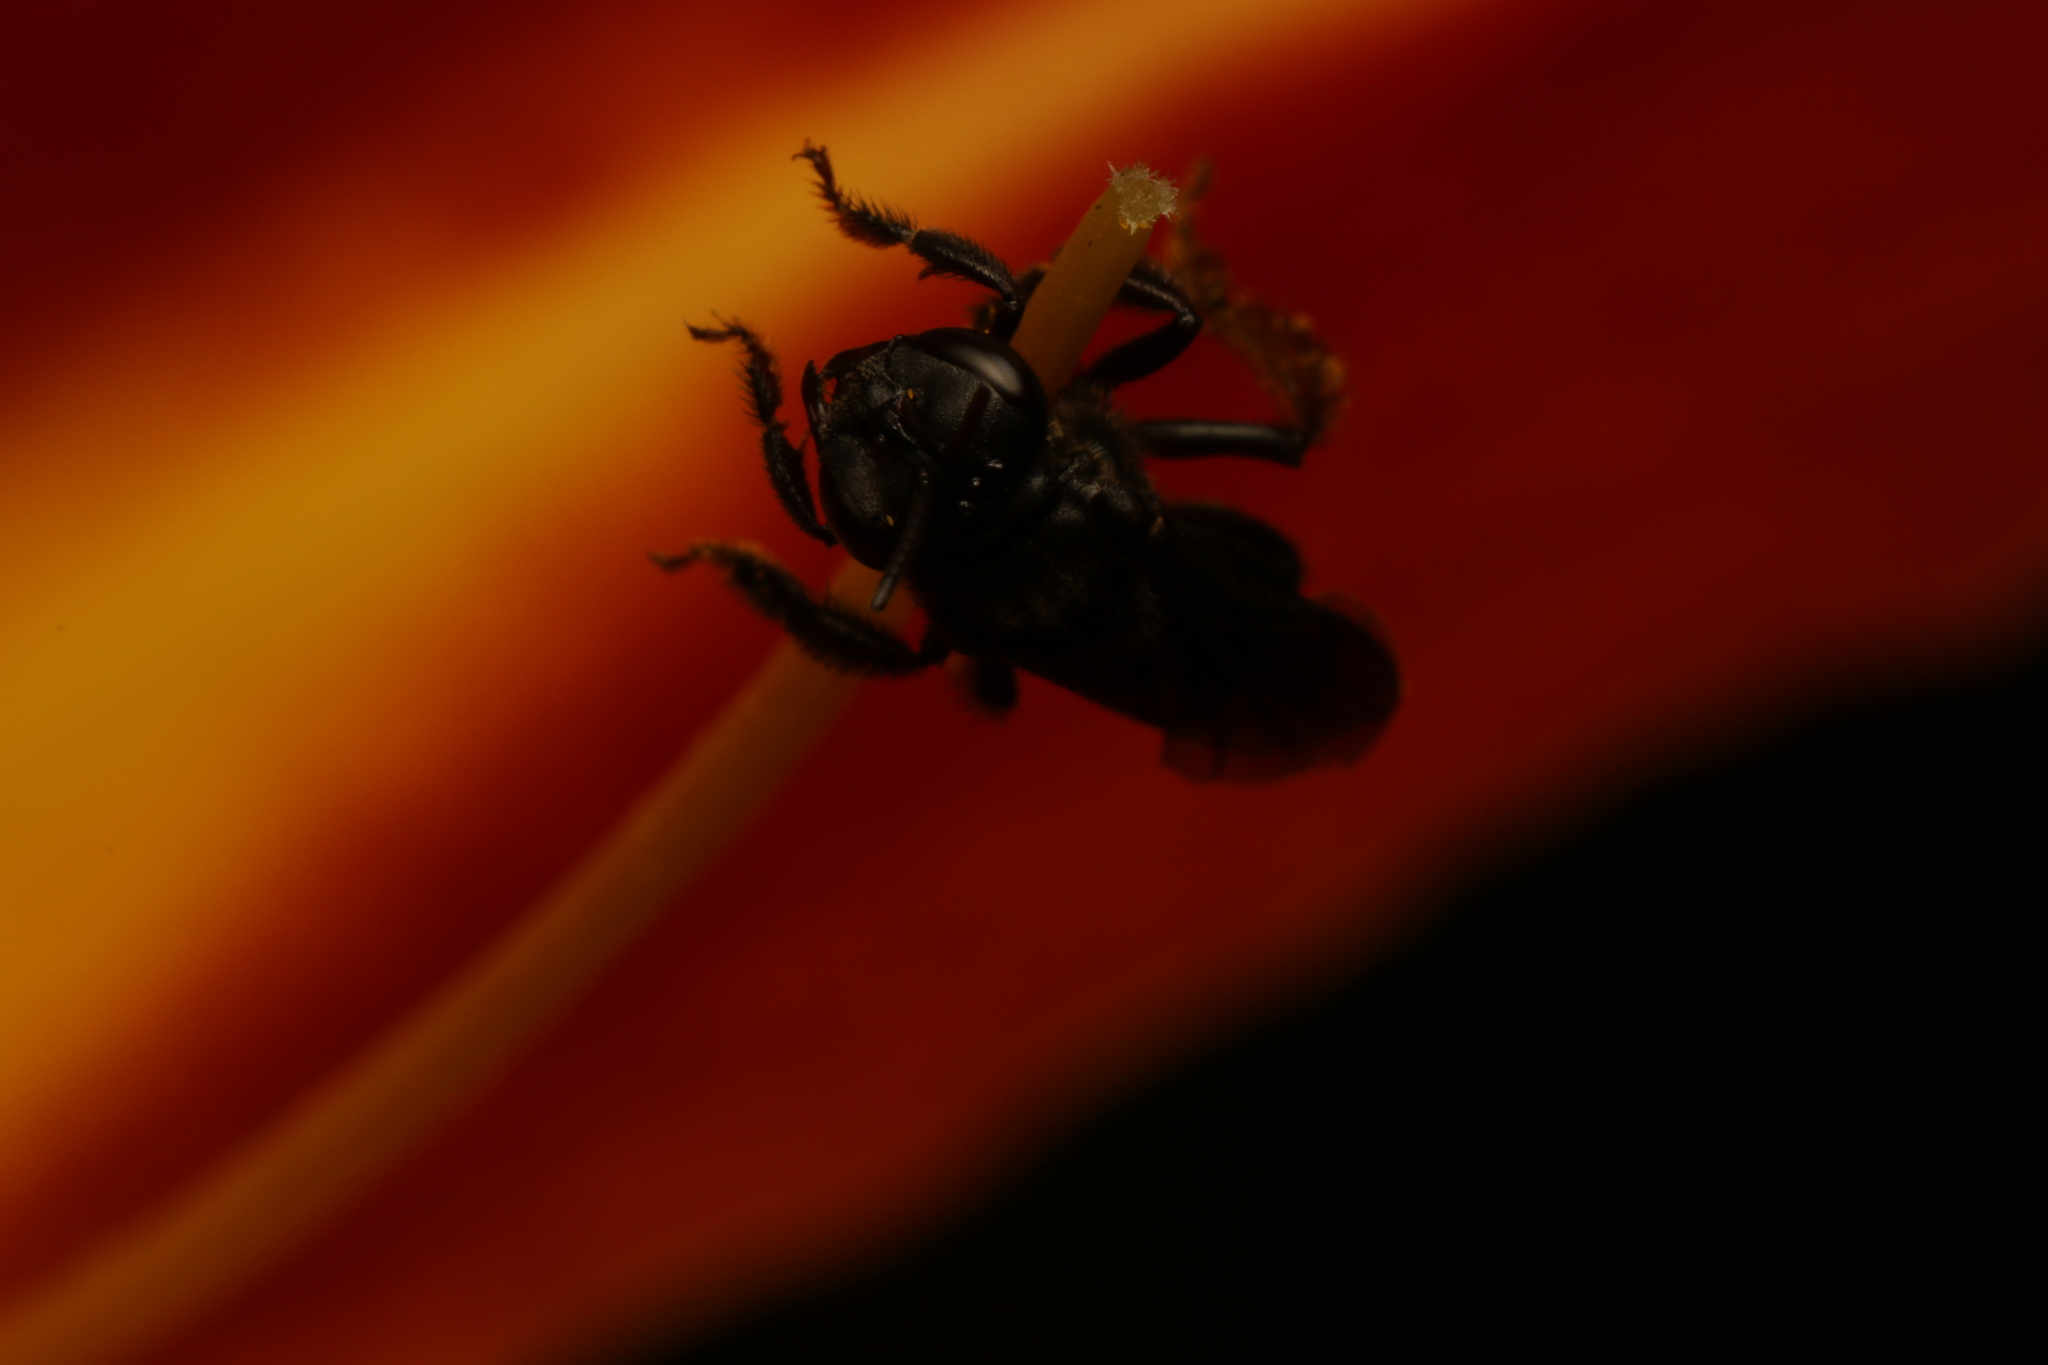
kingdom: Animalia
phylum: Arthropoda
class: Insecta
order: Hymenoptera
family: Apidae
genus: Trigona
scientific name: Trigona spinipes
